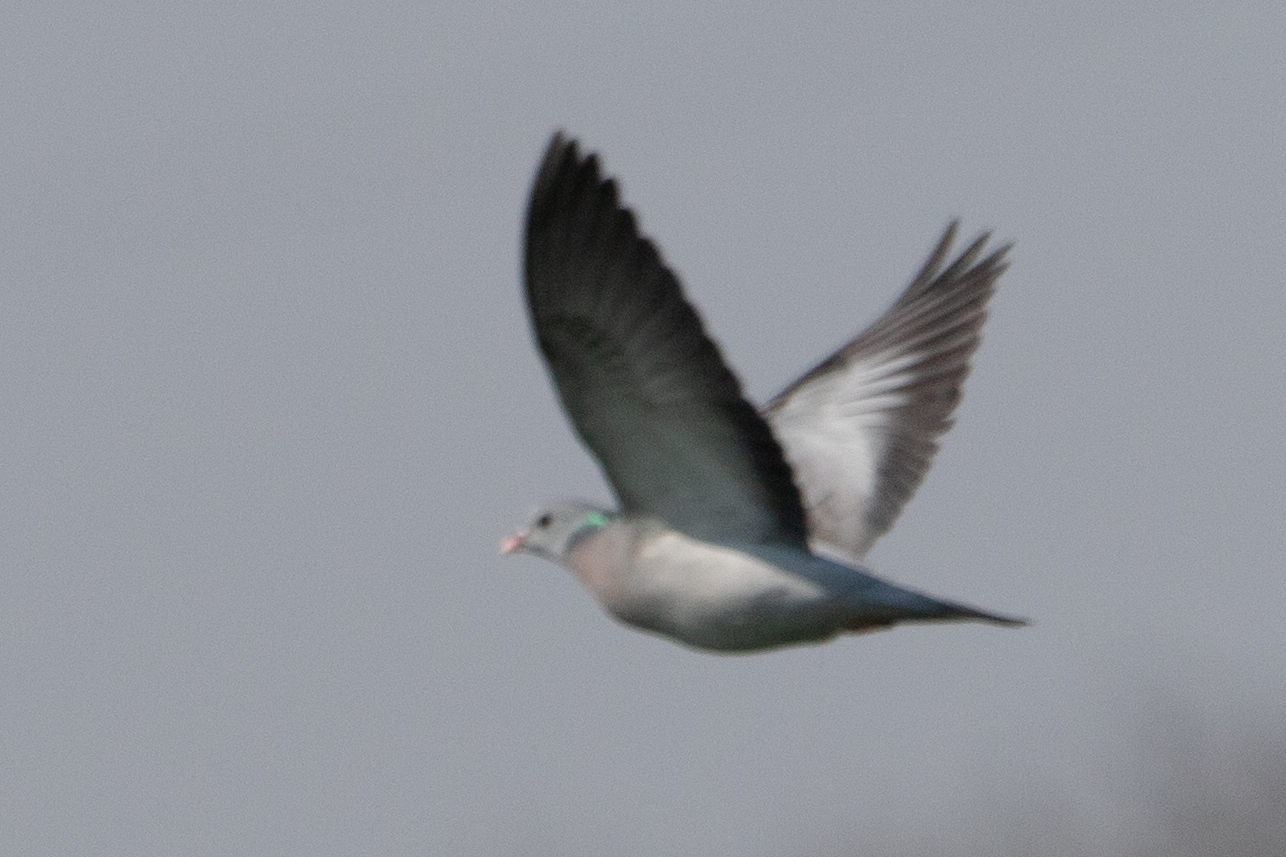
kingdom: Animalia
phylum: Chordata
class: Aves
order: Columbiformes
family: Columbidae
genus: Columba
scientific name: Columba oenas
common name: Stock dove
